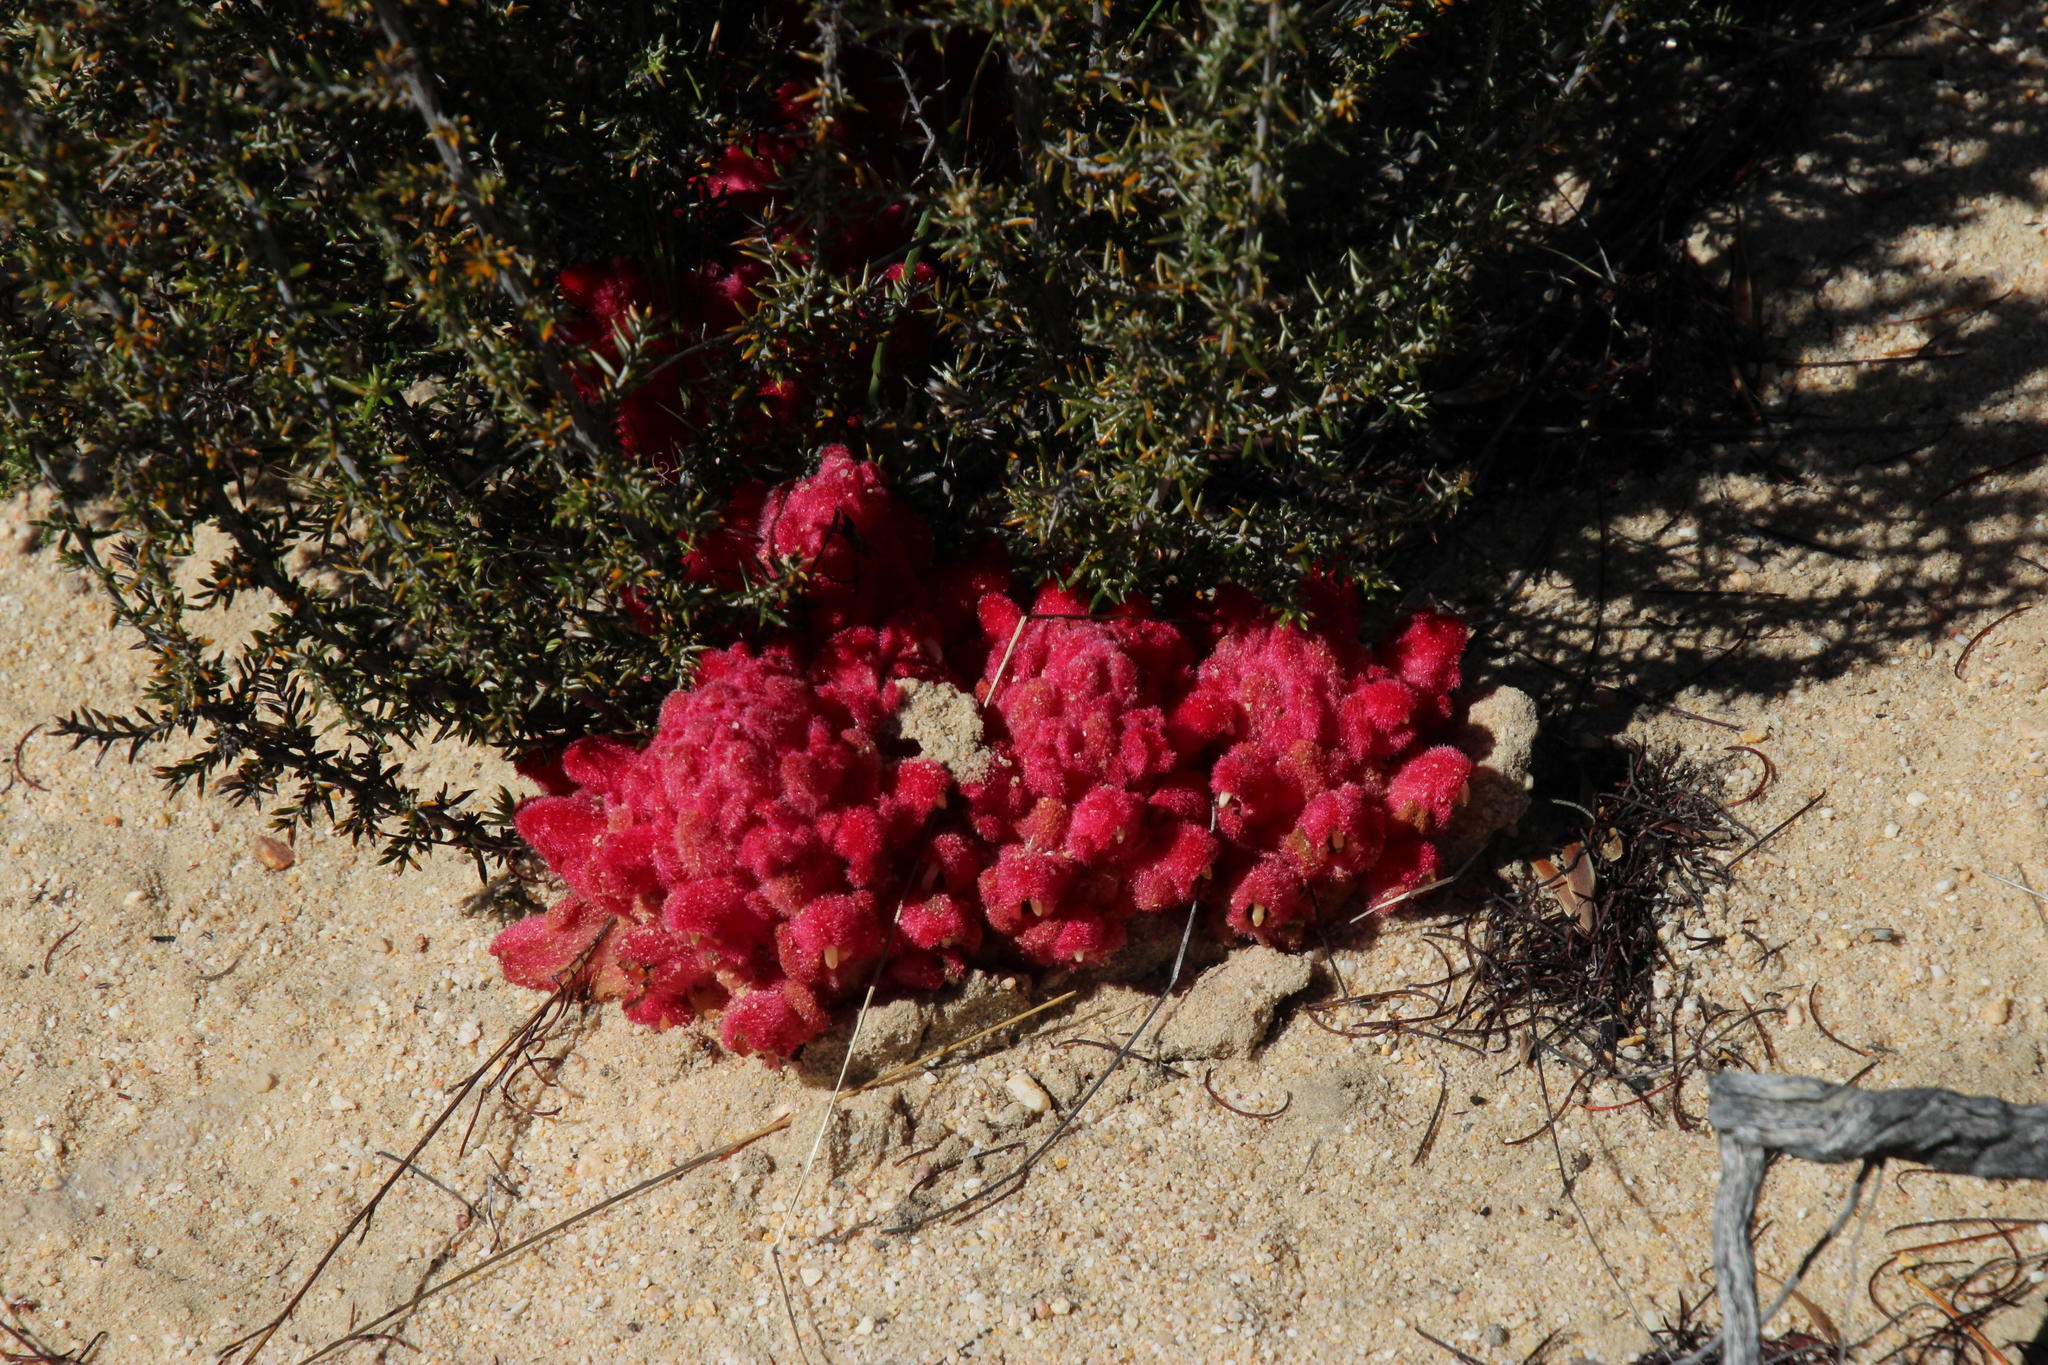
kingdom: Plantae
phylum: Tracheophyta
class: Magnoliopsida
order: Lamiales
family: Orobanchaceae
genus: Hyobanche
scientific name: Hyobanche sanguinea
